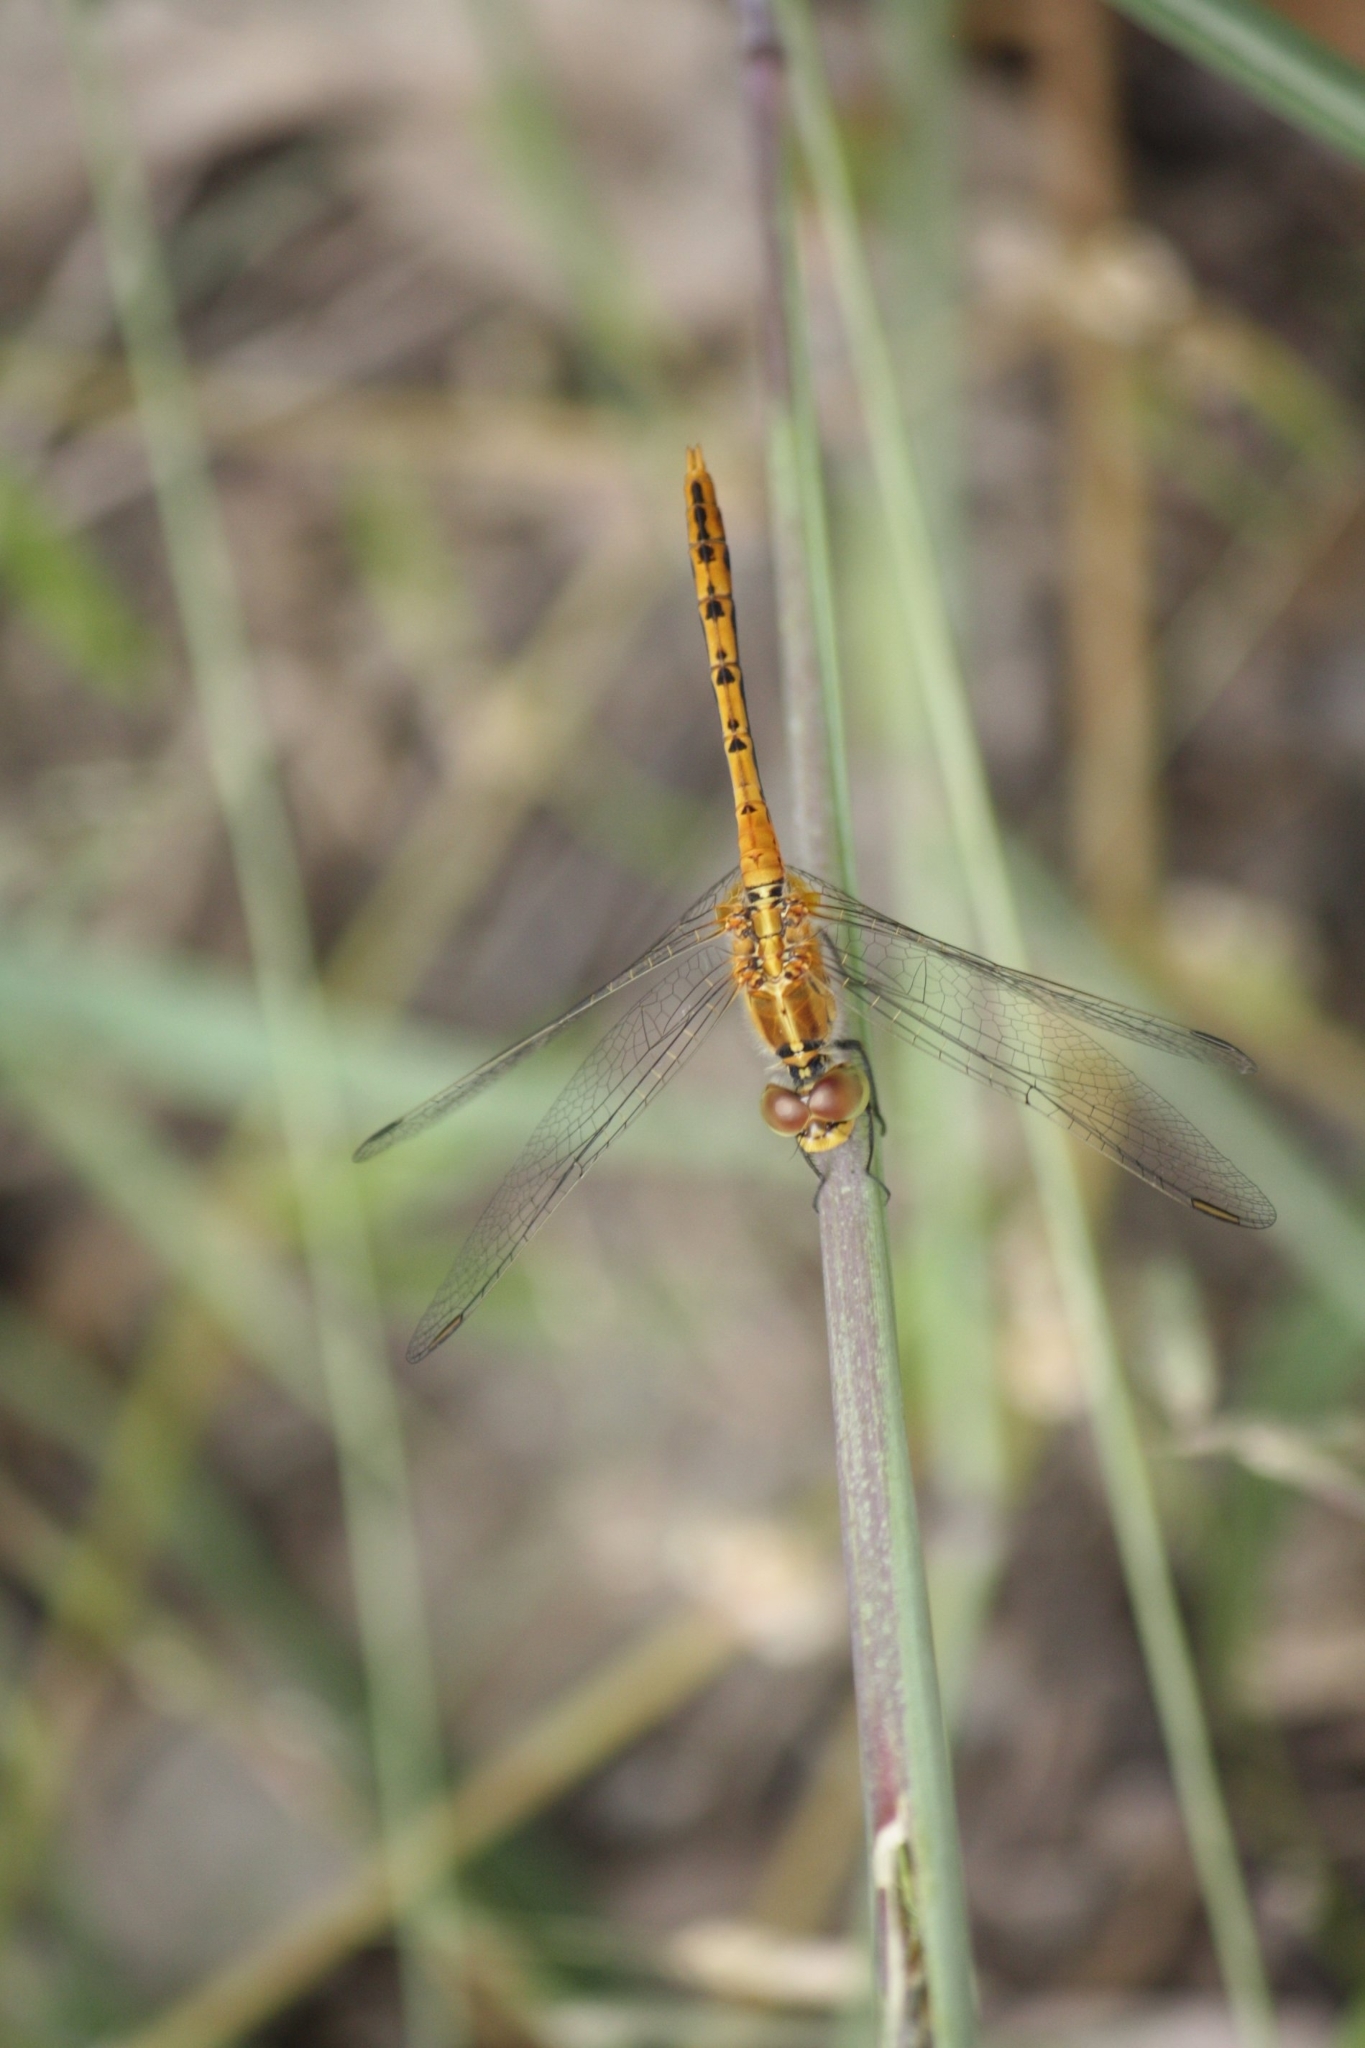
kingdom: Animalia
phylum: Arthropoda
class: Insecta
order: Odonata
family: Libellulidae
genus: Diplacodes
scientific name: Diplacodes bipunctata
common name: Red percher dragonfly
